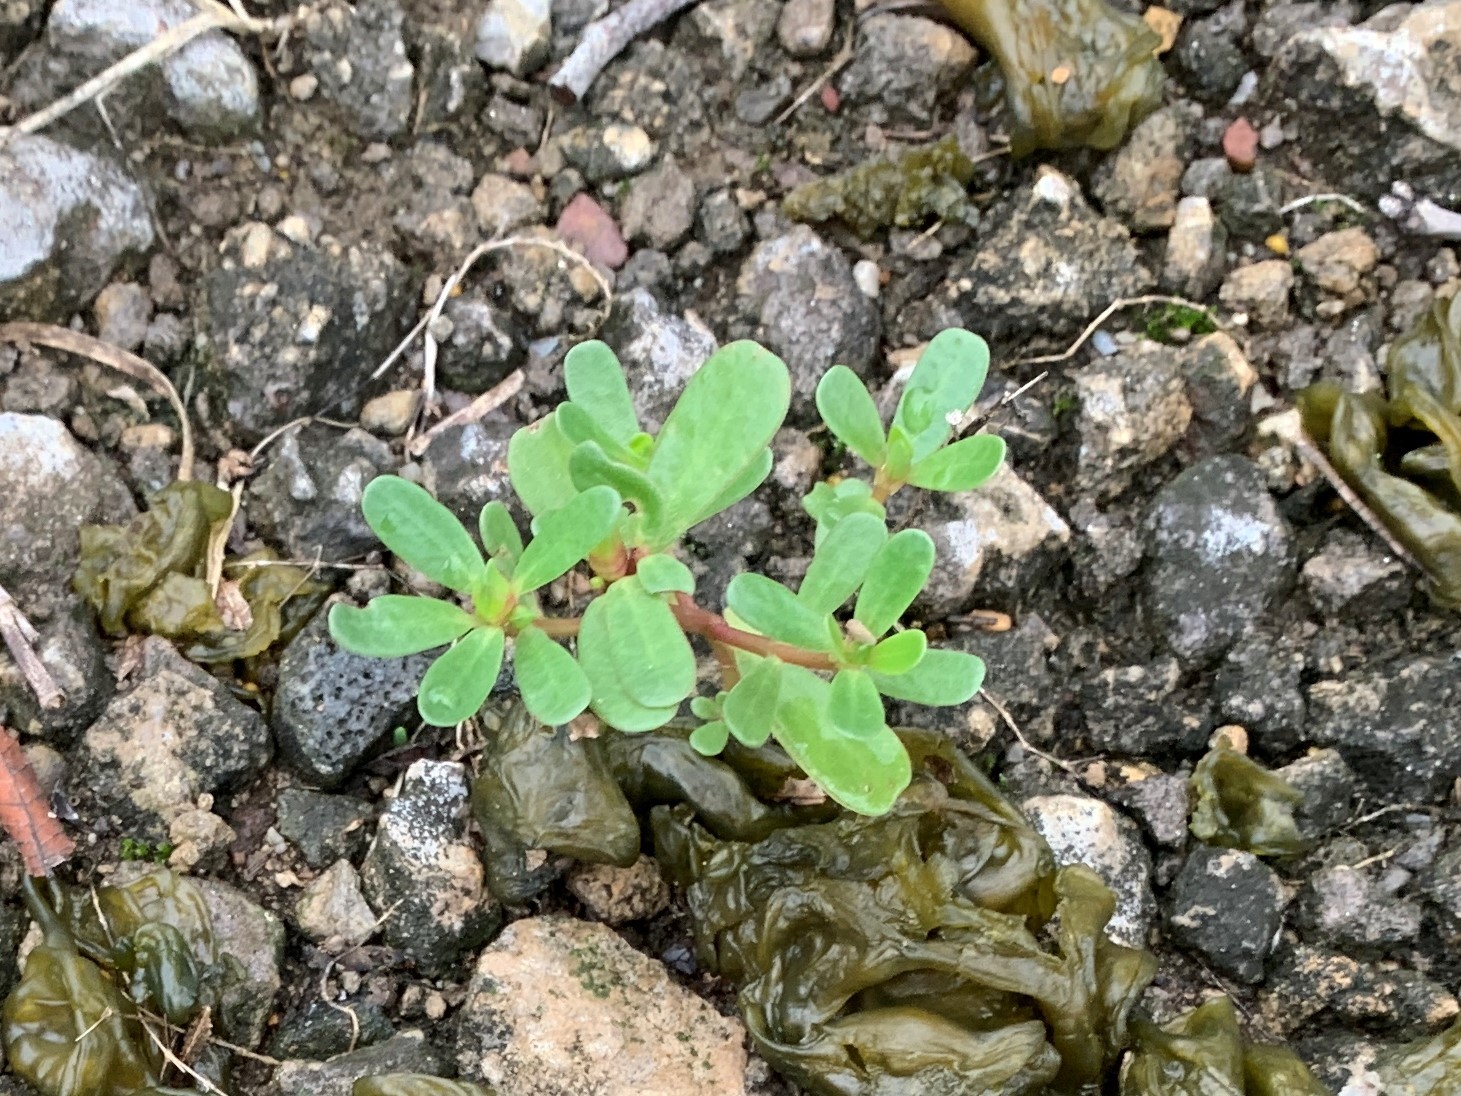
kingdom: Plantae
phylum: Tracheophyta
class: Magnoliopsida
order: Caryophyllales
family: Portulacaceae
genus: Portulaca
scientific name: Portulaca oleracea
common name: Common purslane
